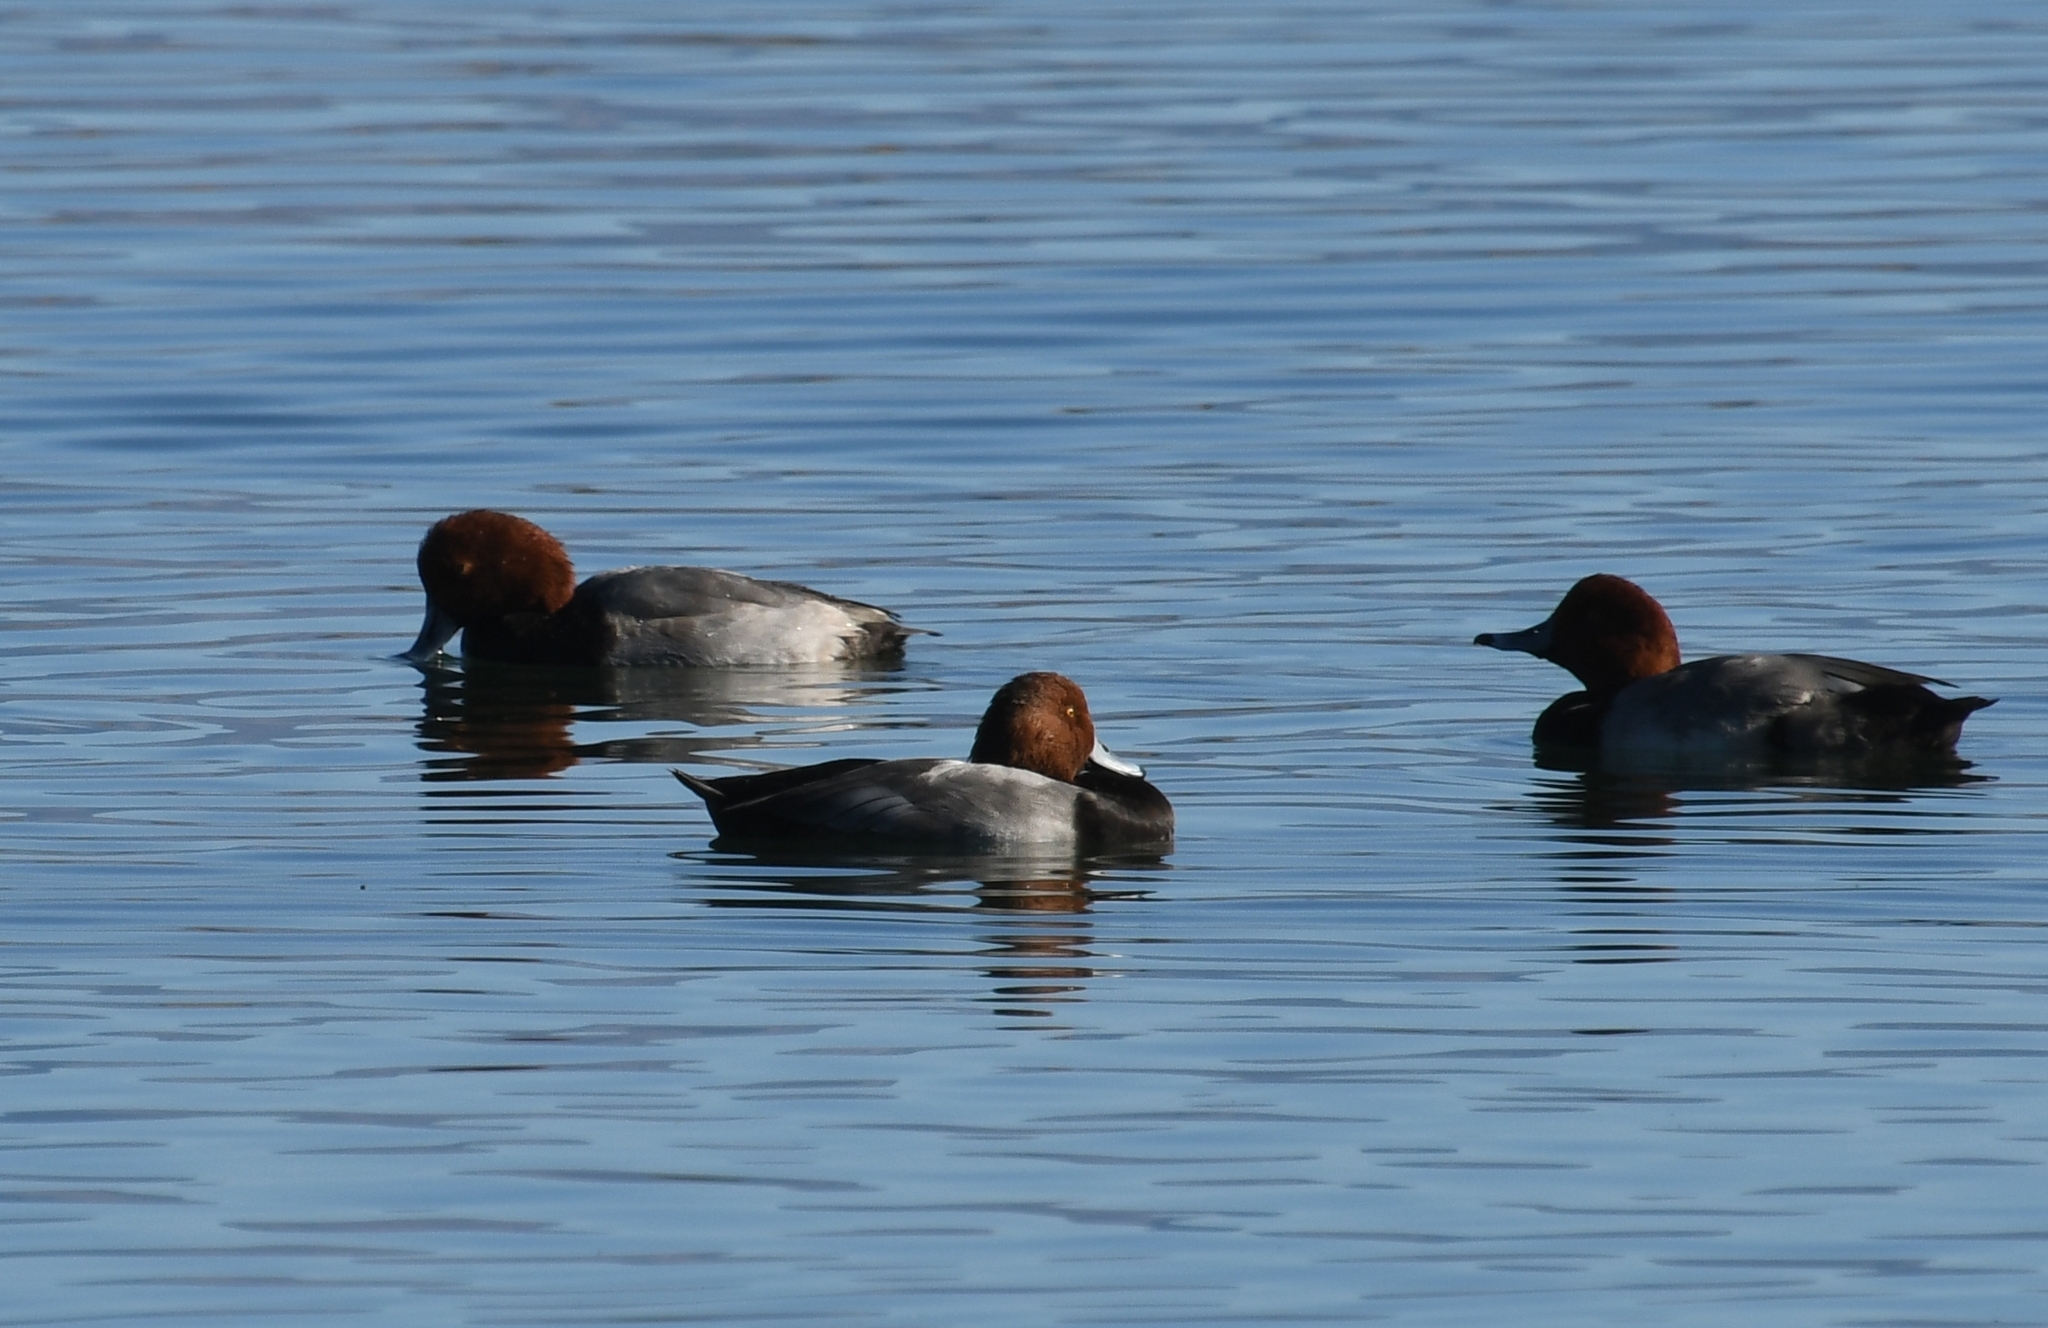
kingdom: Animalia
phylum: Chordata
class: Aves
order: Anseriformes
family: Anatidae
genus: Aythya
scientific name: Aythya americana
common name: Redhead
